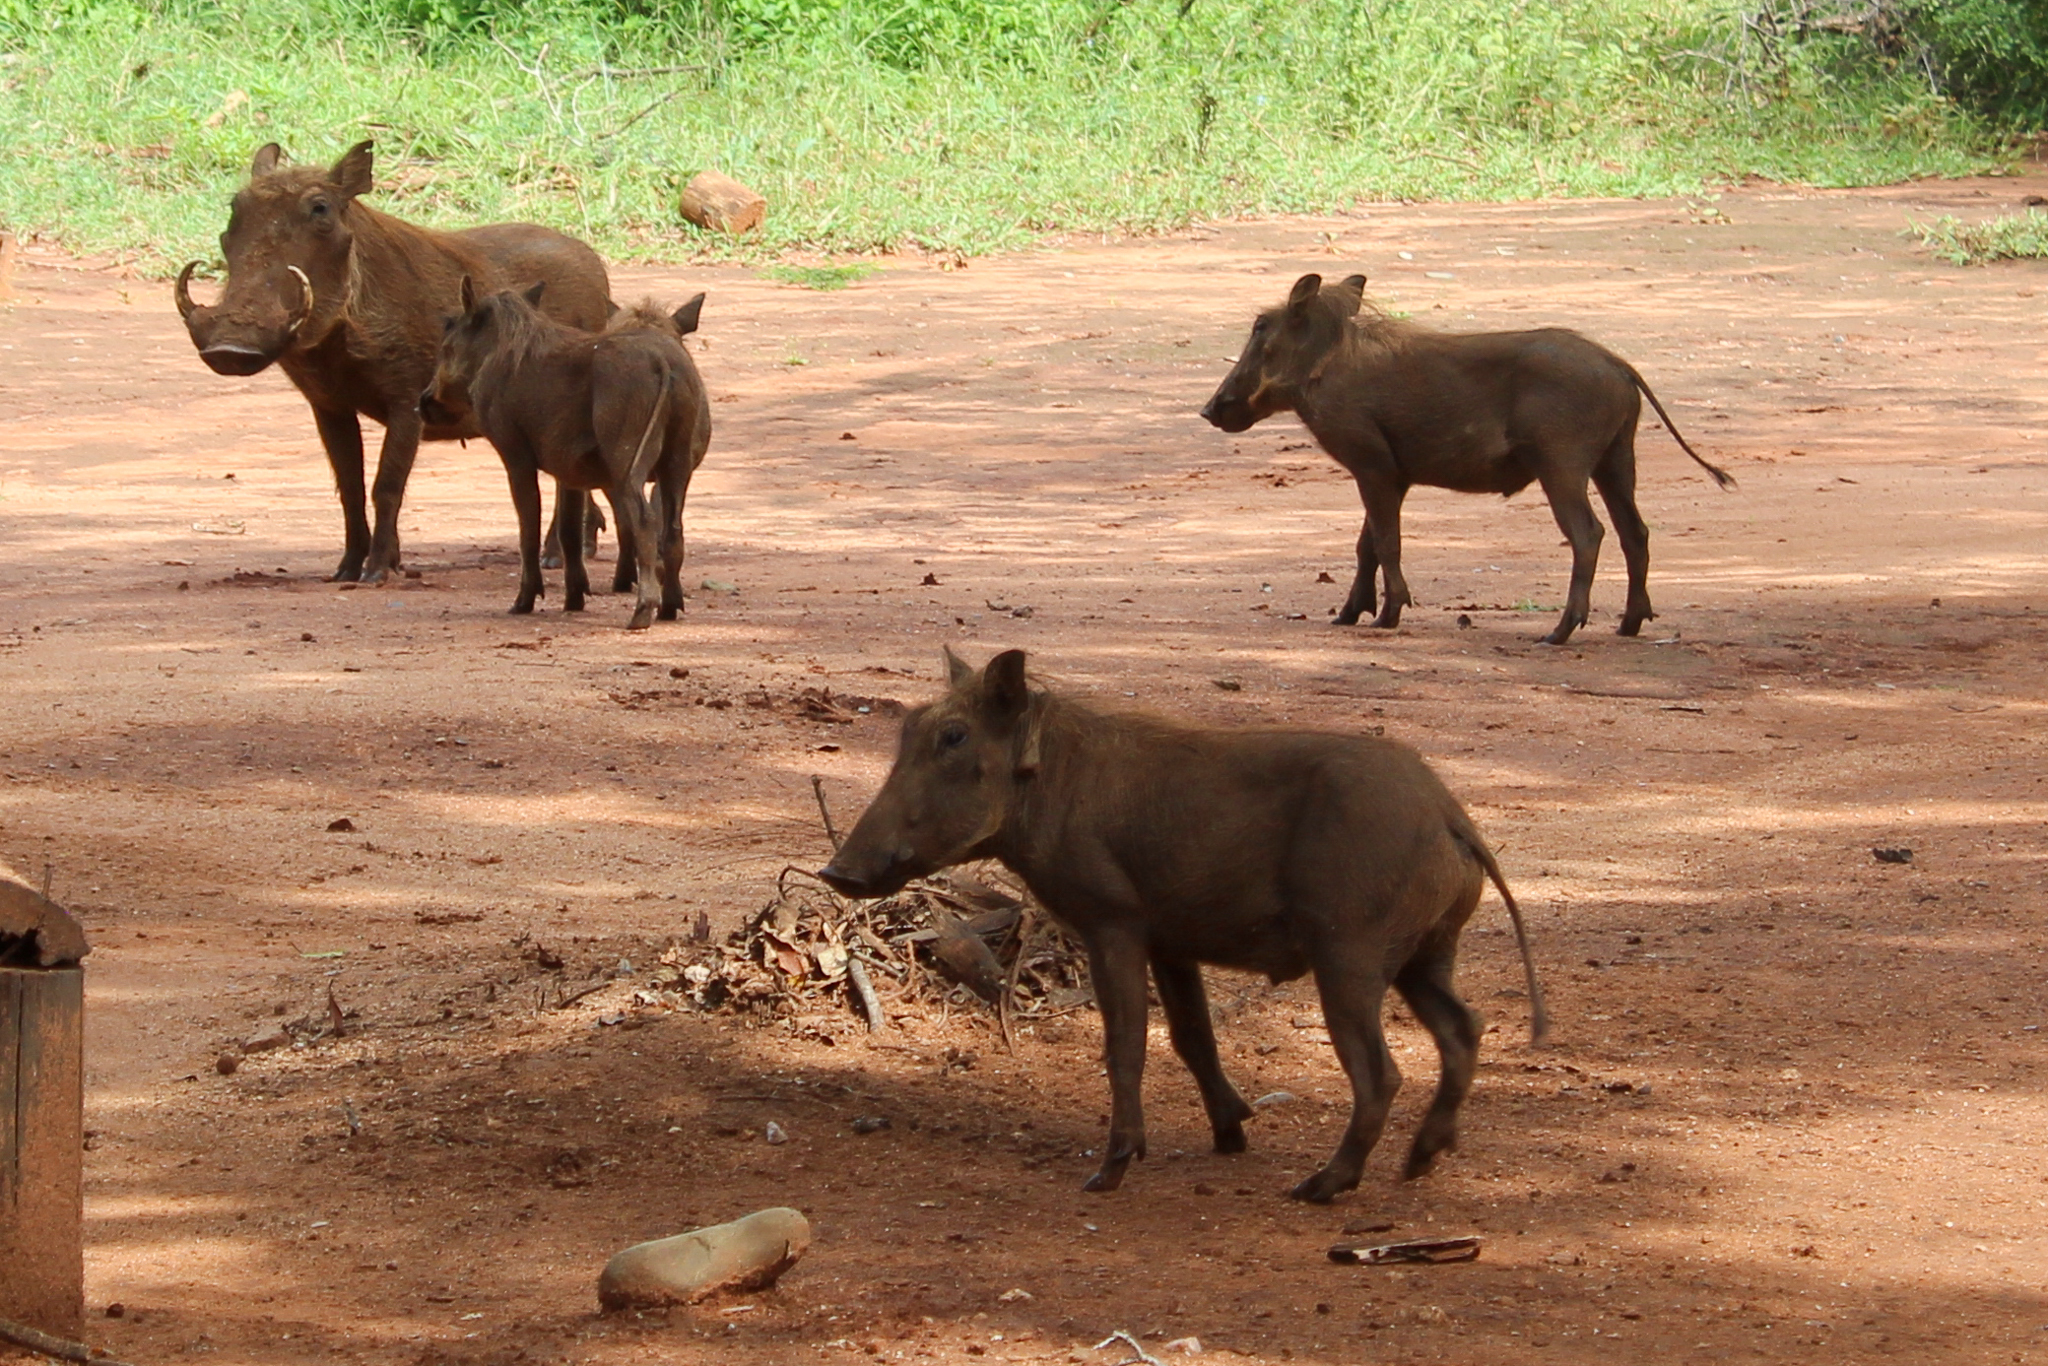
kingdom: Animalia
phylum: Chordata
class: Mammalia
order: Artiodactyla
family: Suidae
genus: Phacochoerus
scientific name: Phacochoerus africanus
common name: Common warthog
